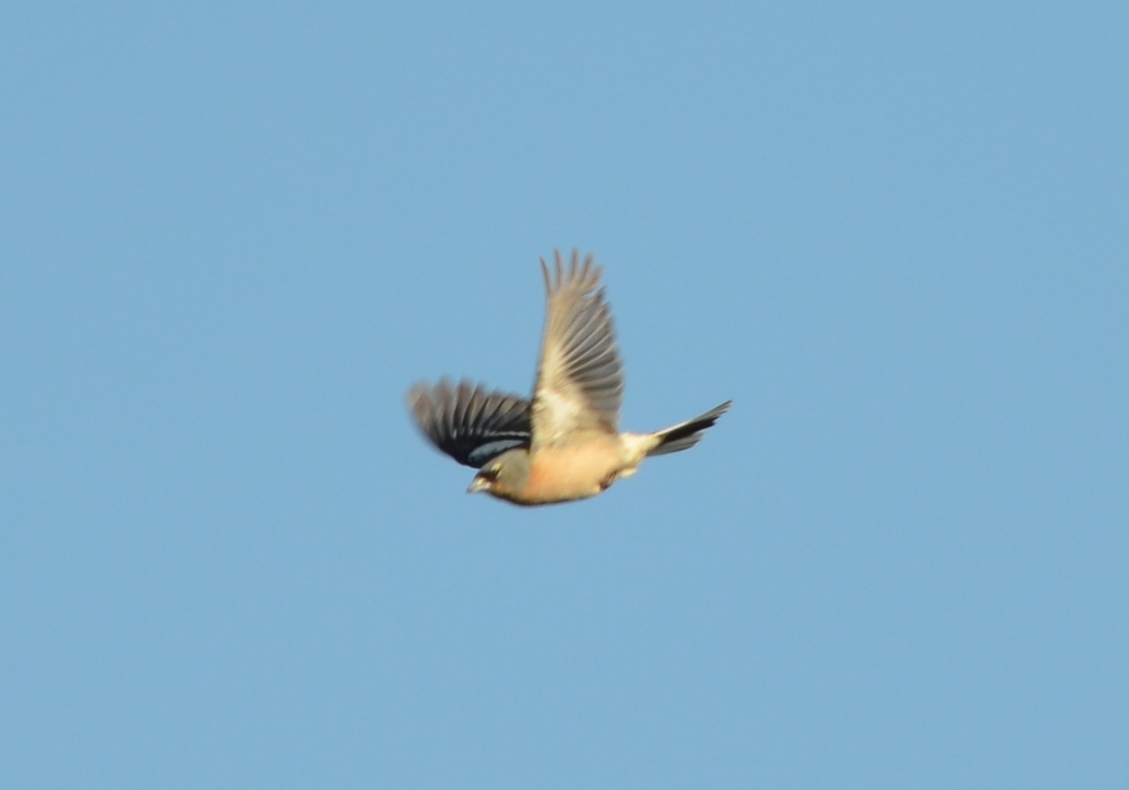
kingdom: Animalia
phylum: Chordata
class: Aves
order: Passeriformes
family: Fringillidae
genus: Fringilla
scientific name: Fringilla spodiogenys
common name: African chaffinch
